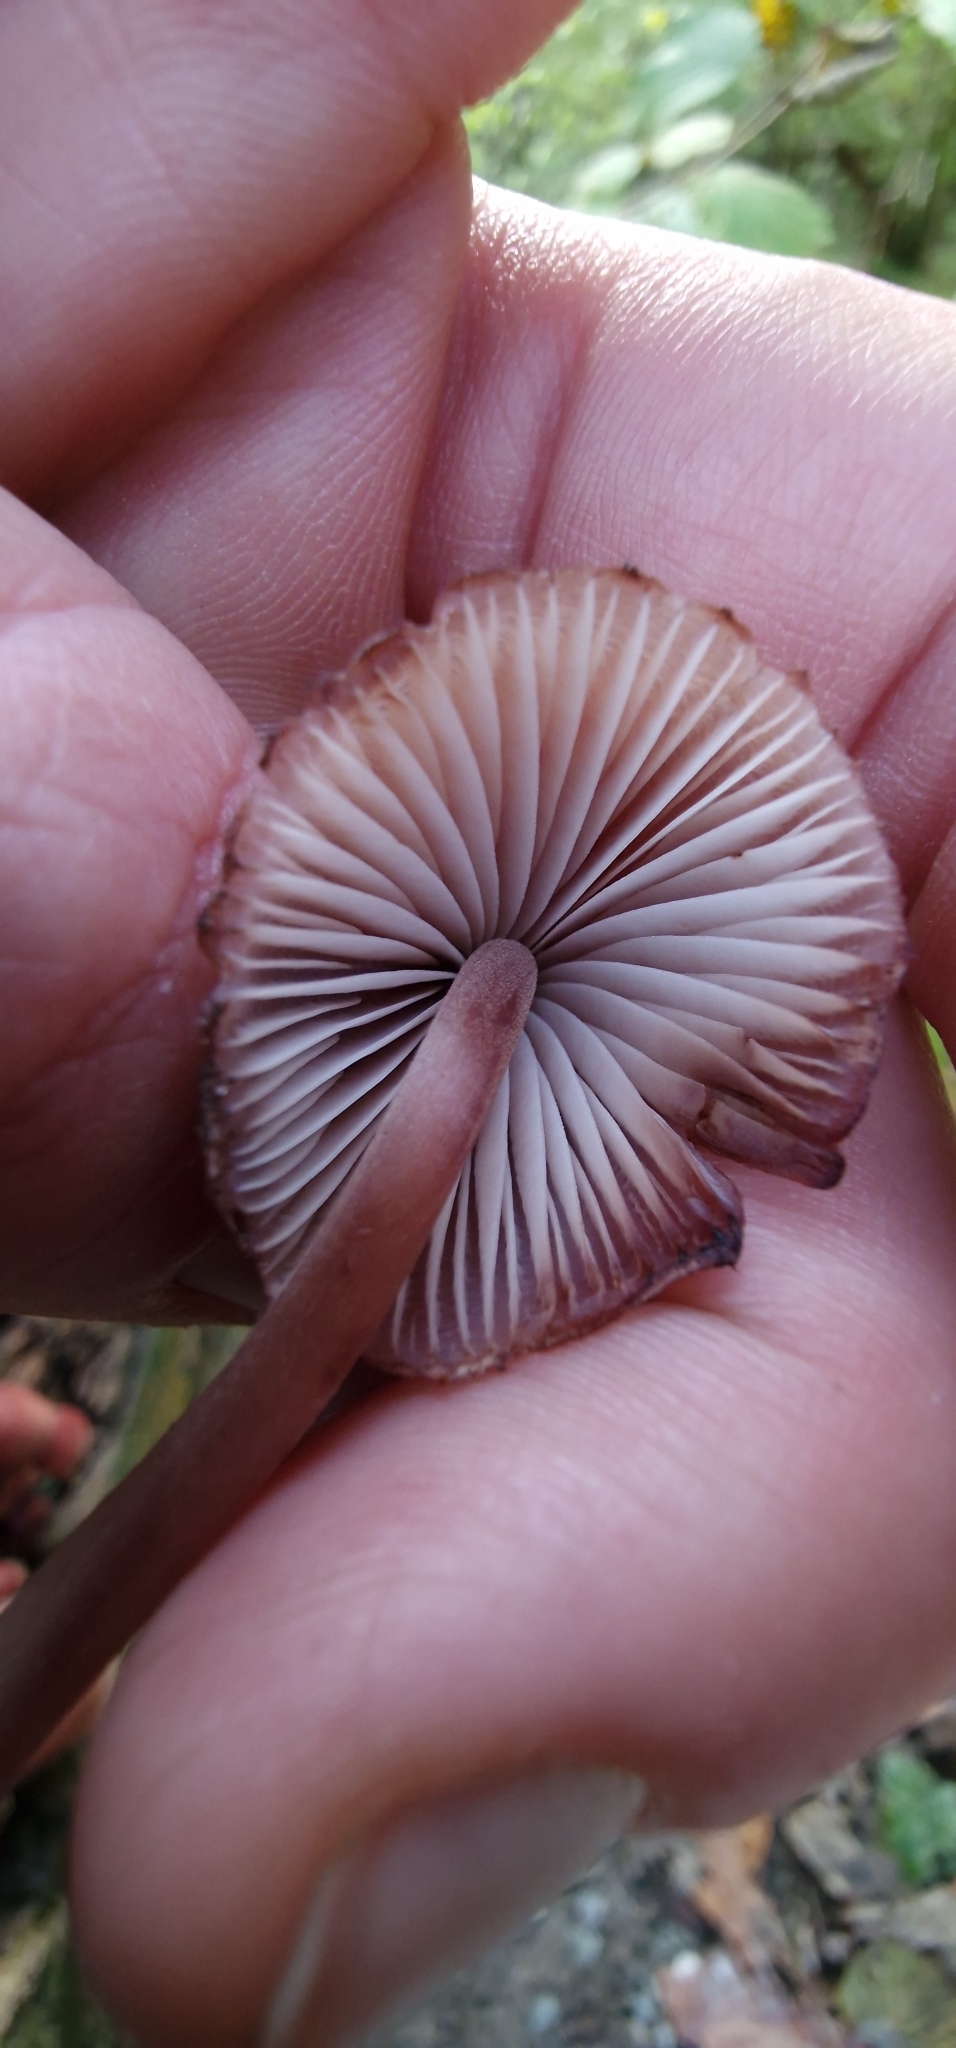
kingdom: Fungi
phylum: Basidiomycota
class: Agaricomycetes
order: Agaricales
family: Mycenaceae
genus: Mycena
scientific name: Mycena haematopus
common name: Burgundydrop bonnet
